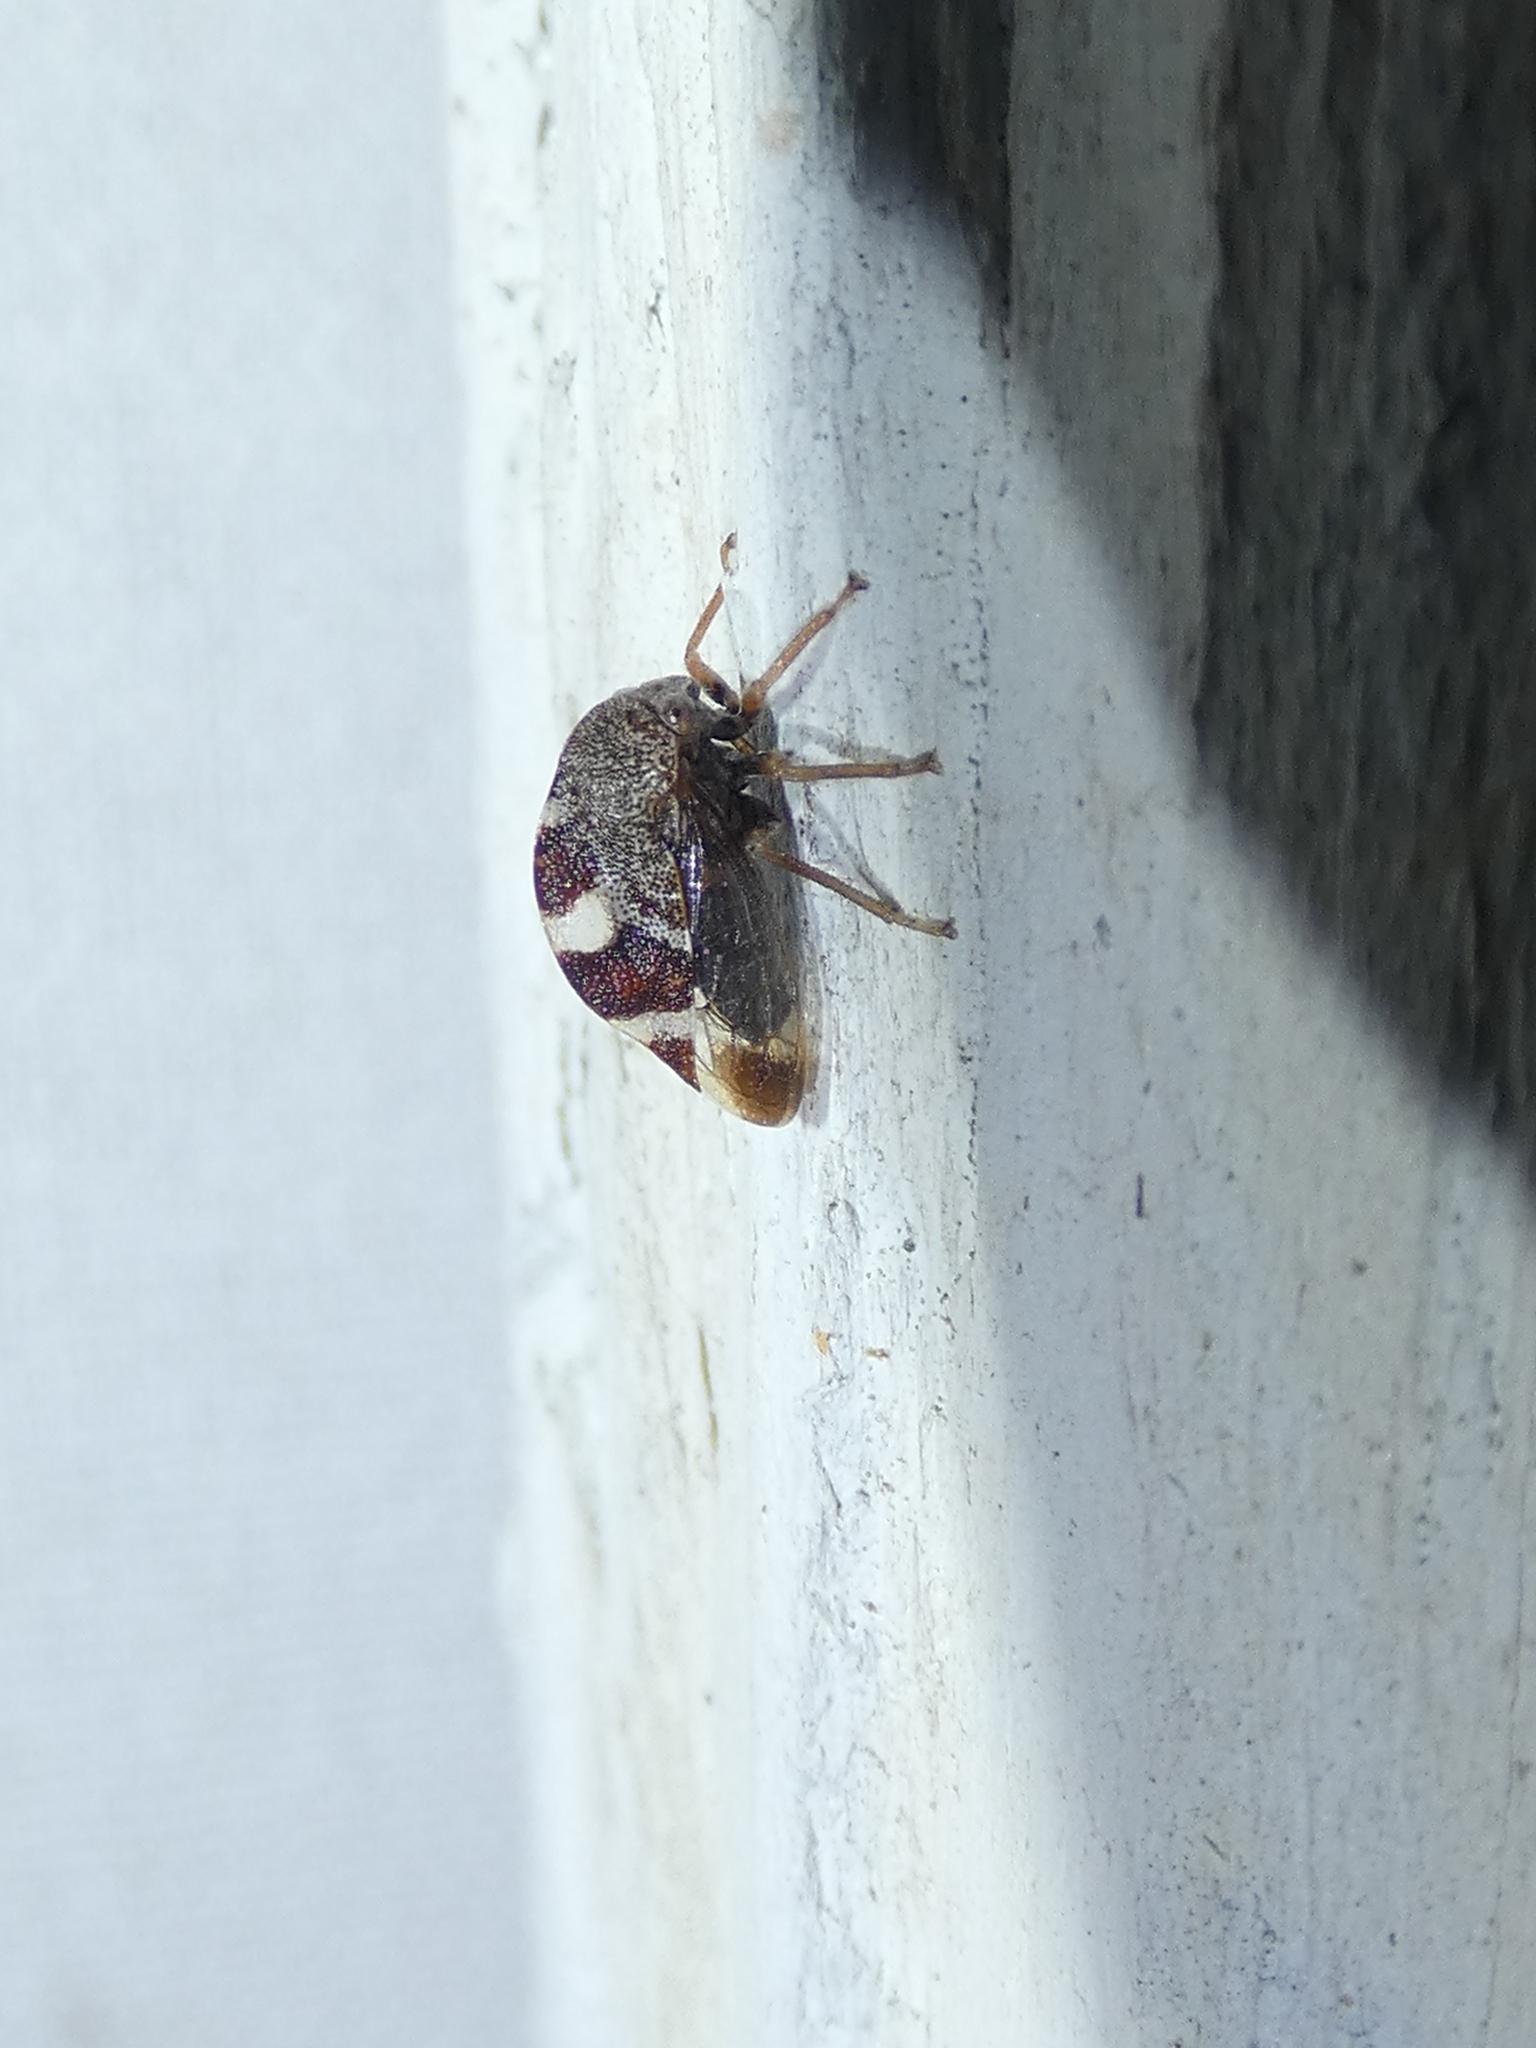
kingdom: Animalia
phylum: Arthropoda
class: Insecta
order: Hemiptera
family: Membracidae
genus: Cyrtolobus
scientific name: Cyrtolobus tuberosa
